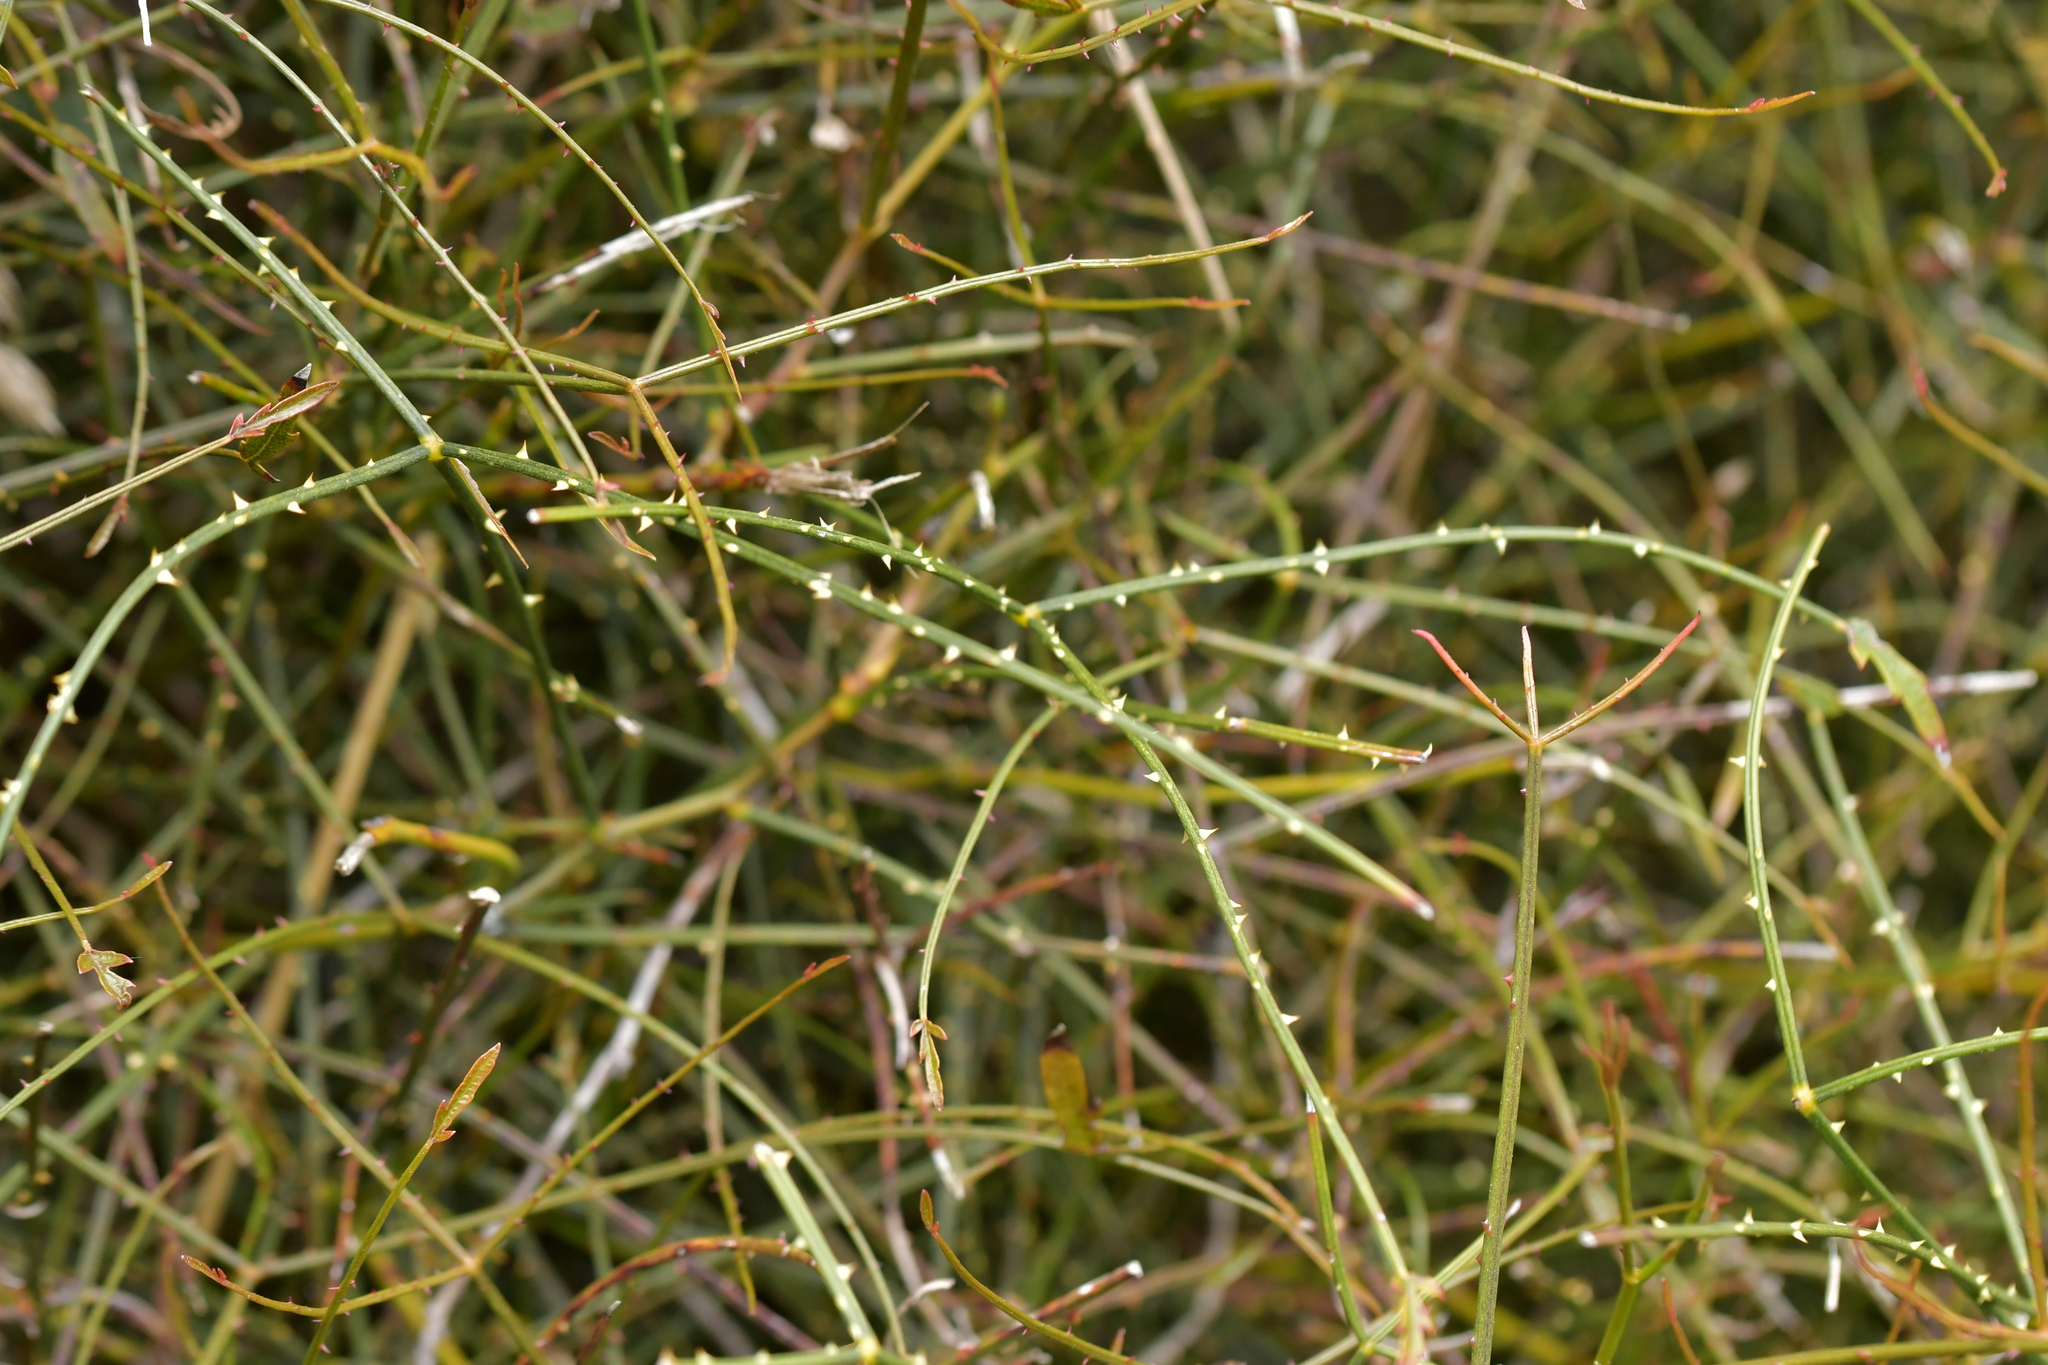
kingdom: Plantae
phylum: Tracheophyta
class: Magnoliopsida
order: Rosales
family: Rosaceae
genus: Rubus
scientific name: Rubus squarrosus
